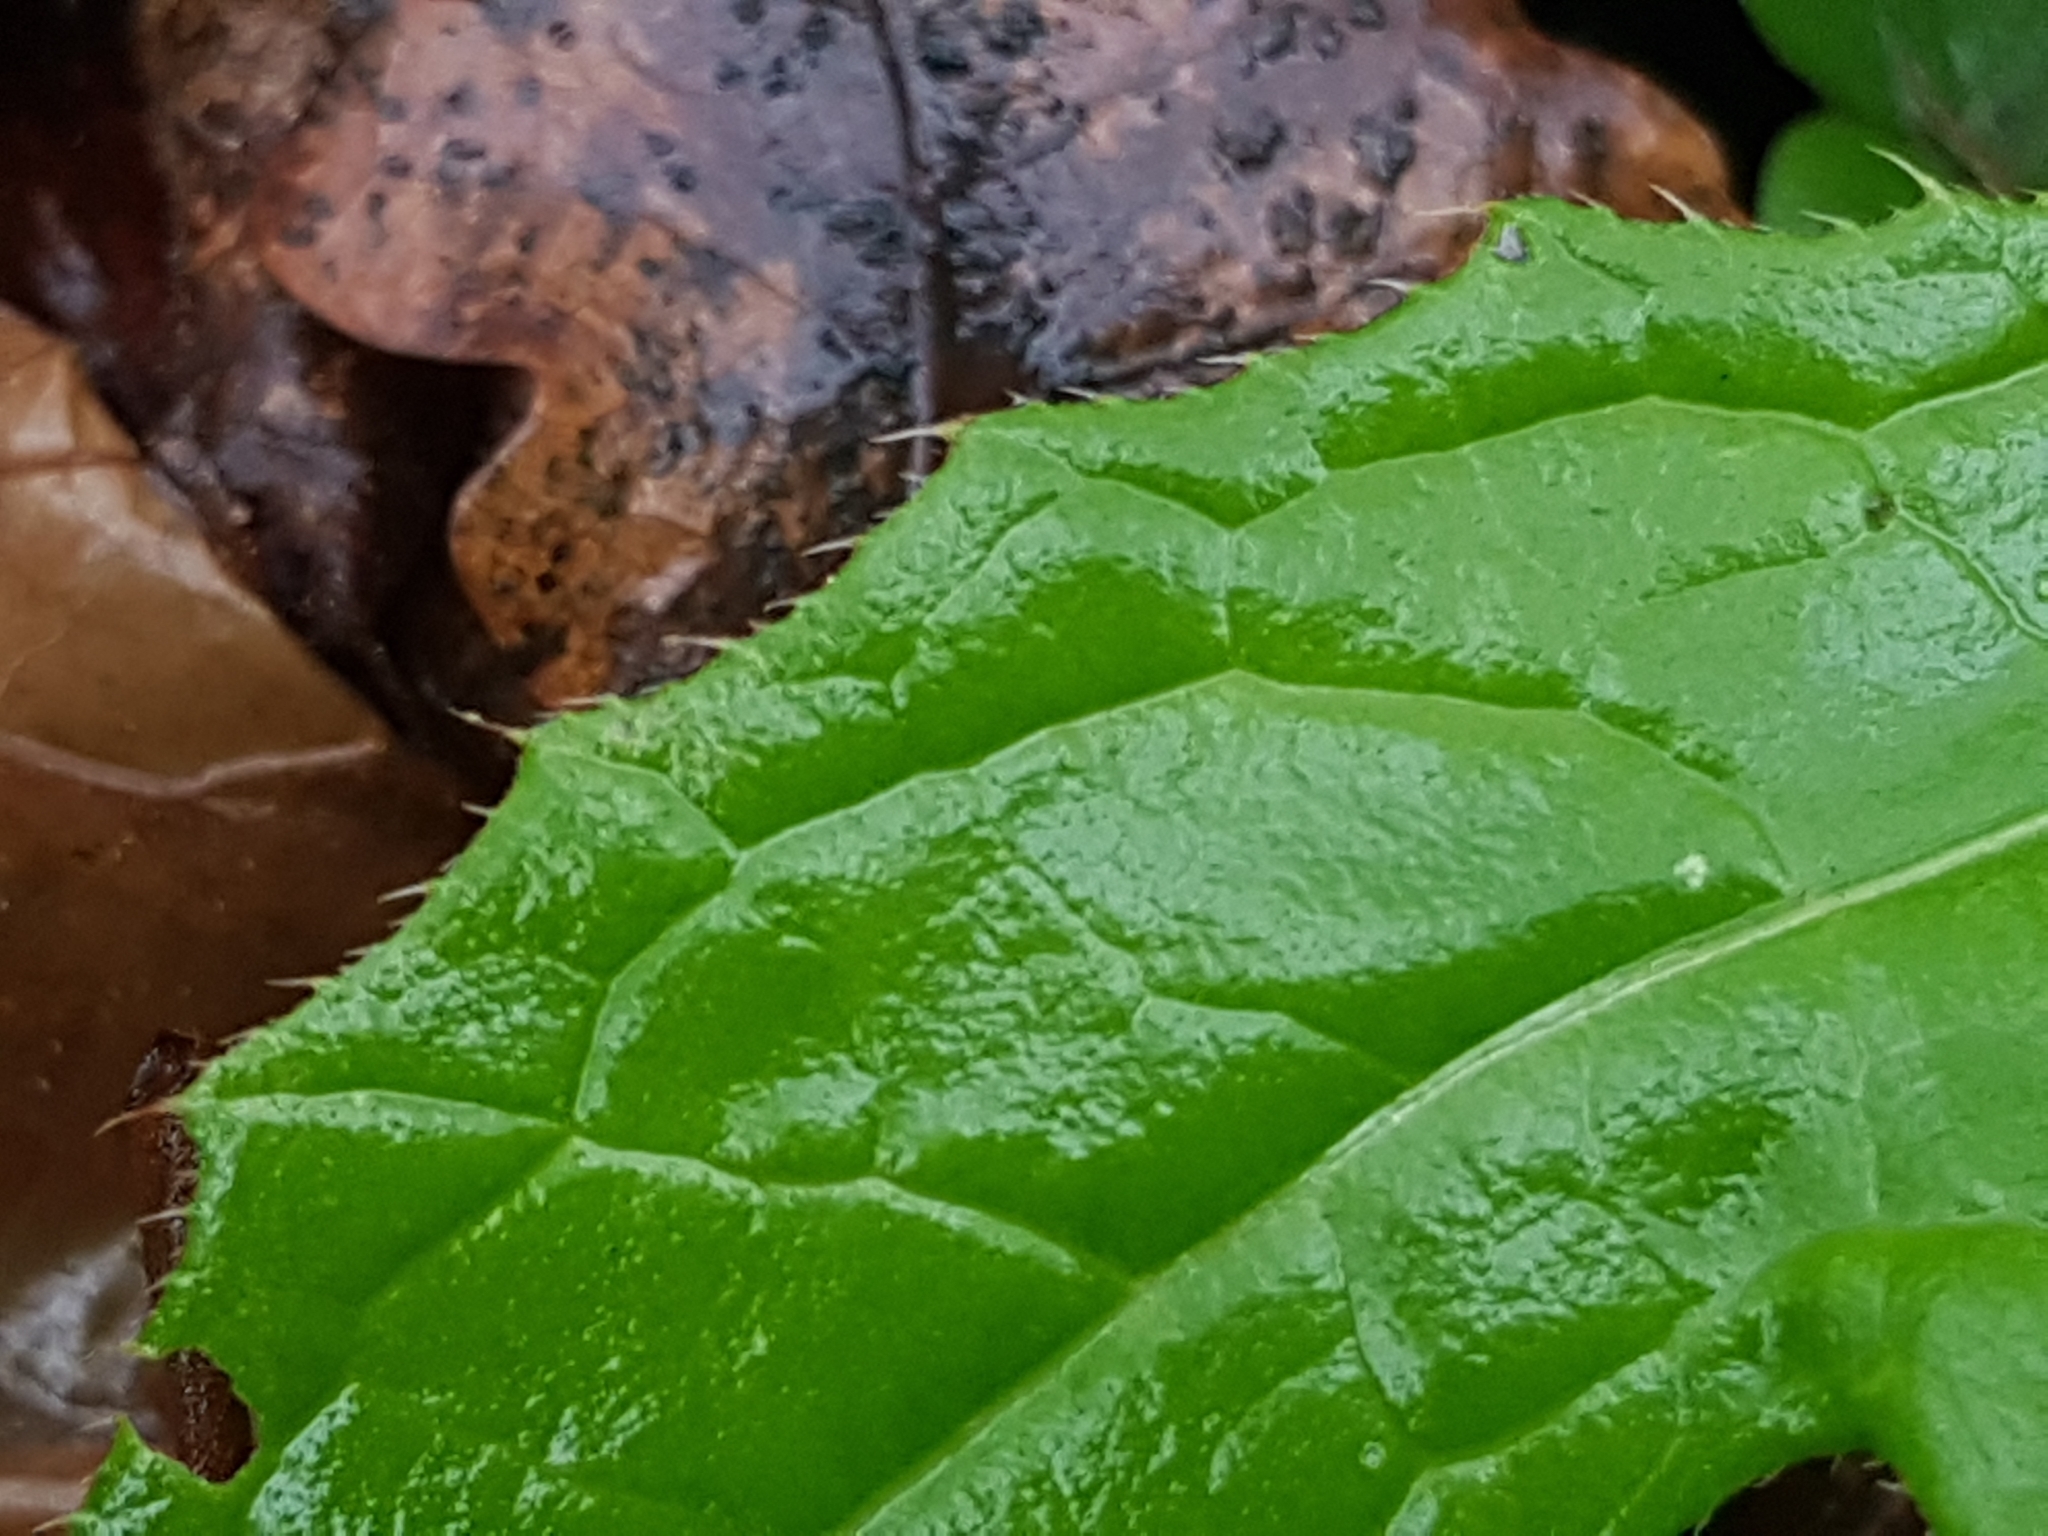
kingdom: Plantae
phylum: Tracheophyta
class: Magnoliopsida
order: Asterales
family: Asteraceae
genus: Cirsium
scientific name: Cirsium oleraceum
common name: Cabbage thistle
